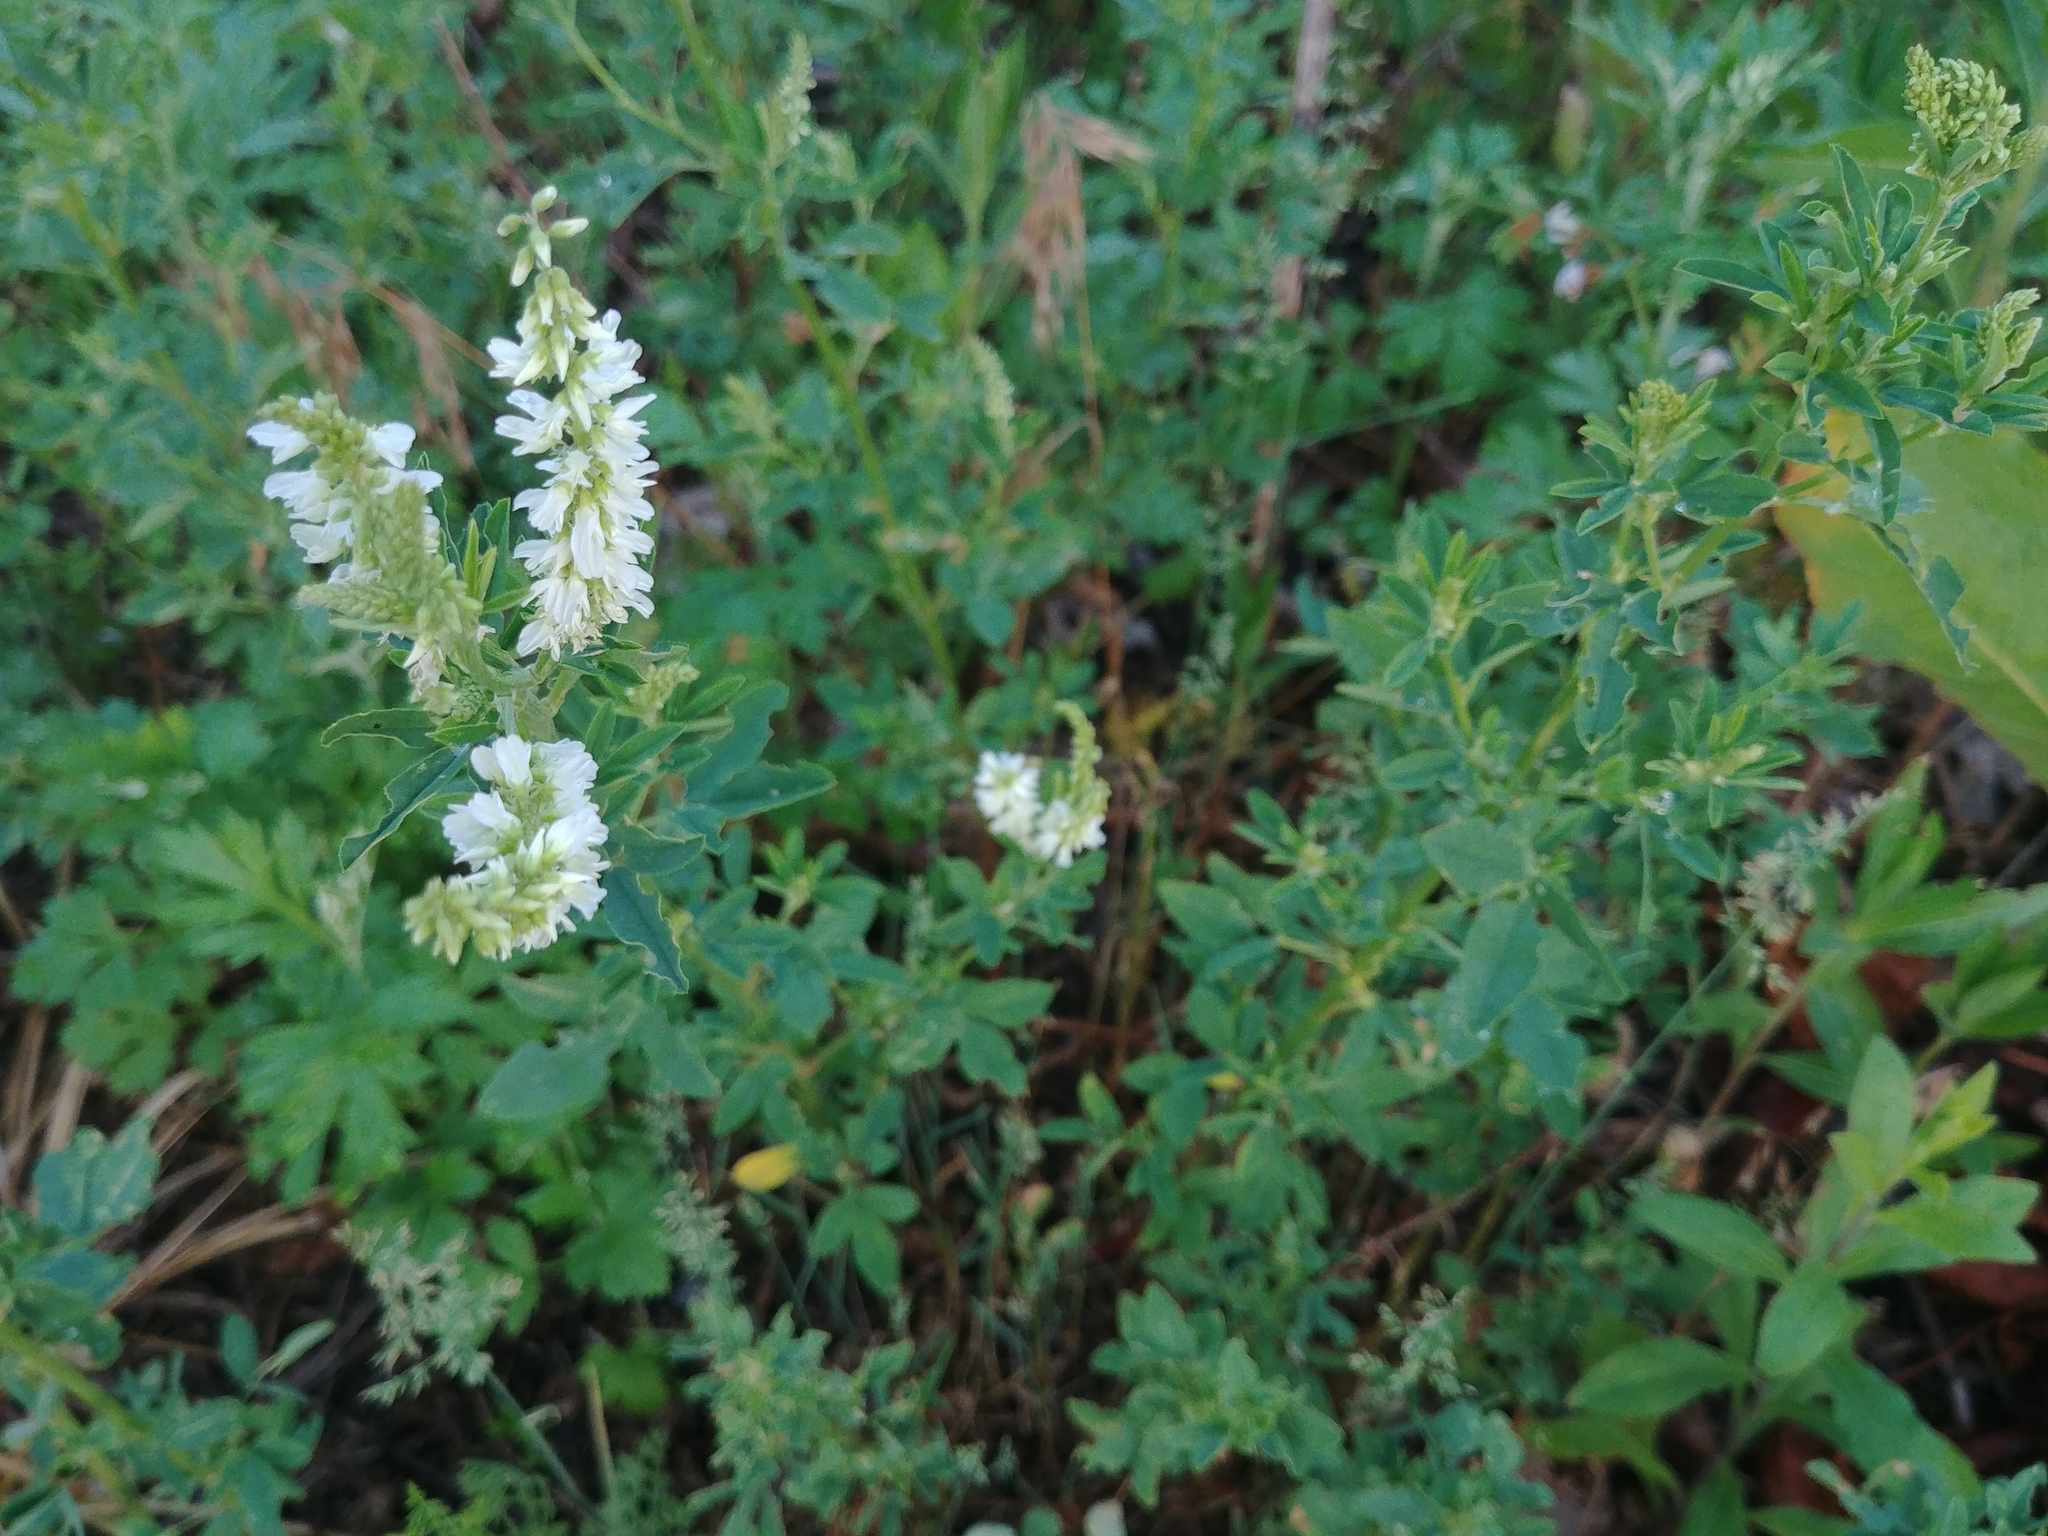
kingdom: Plantae
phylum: Tracheophyta
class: Magnoliopsida
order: Fabales
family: Fabaceae
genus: Melilotus
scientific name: Melilotus albus
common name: White melilot
